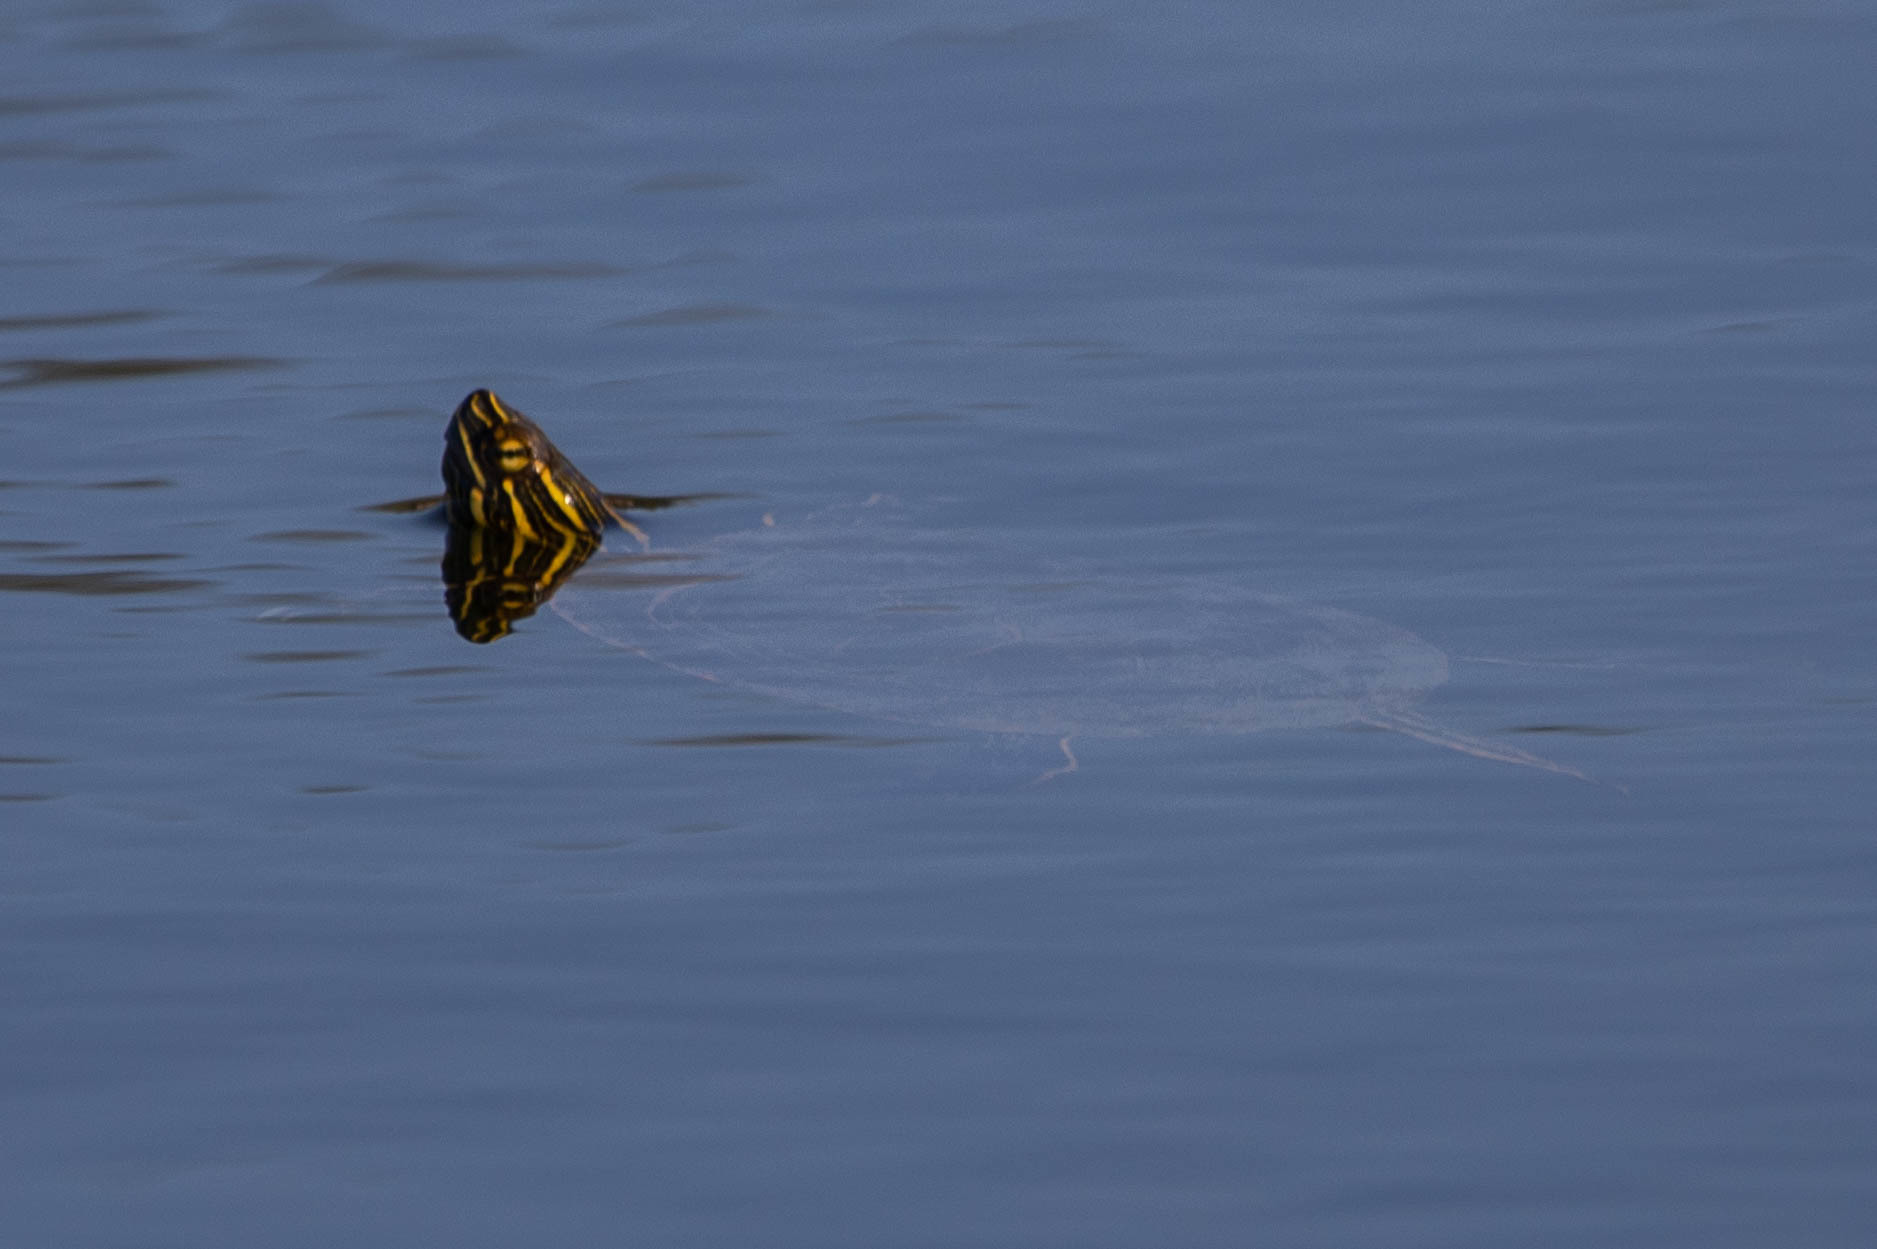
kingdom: Animalia
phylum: Chordata
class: Testudines
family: Emydidae
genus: Chrysemys
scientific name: Chrysemys picta
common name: Painted turtle
